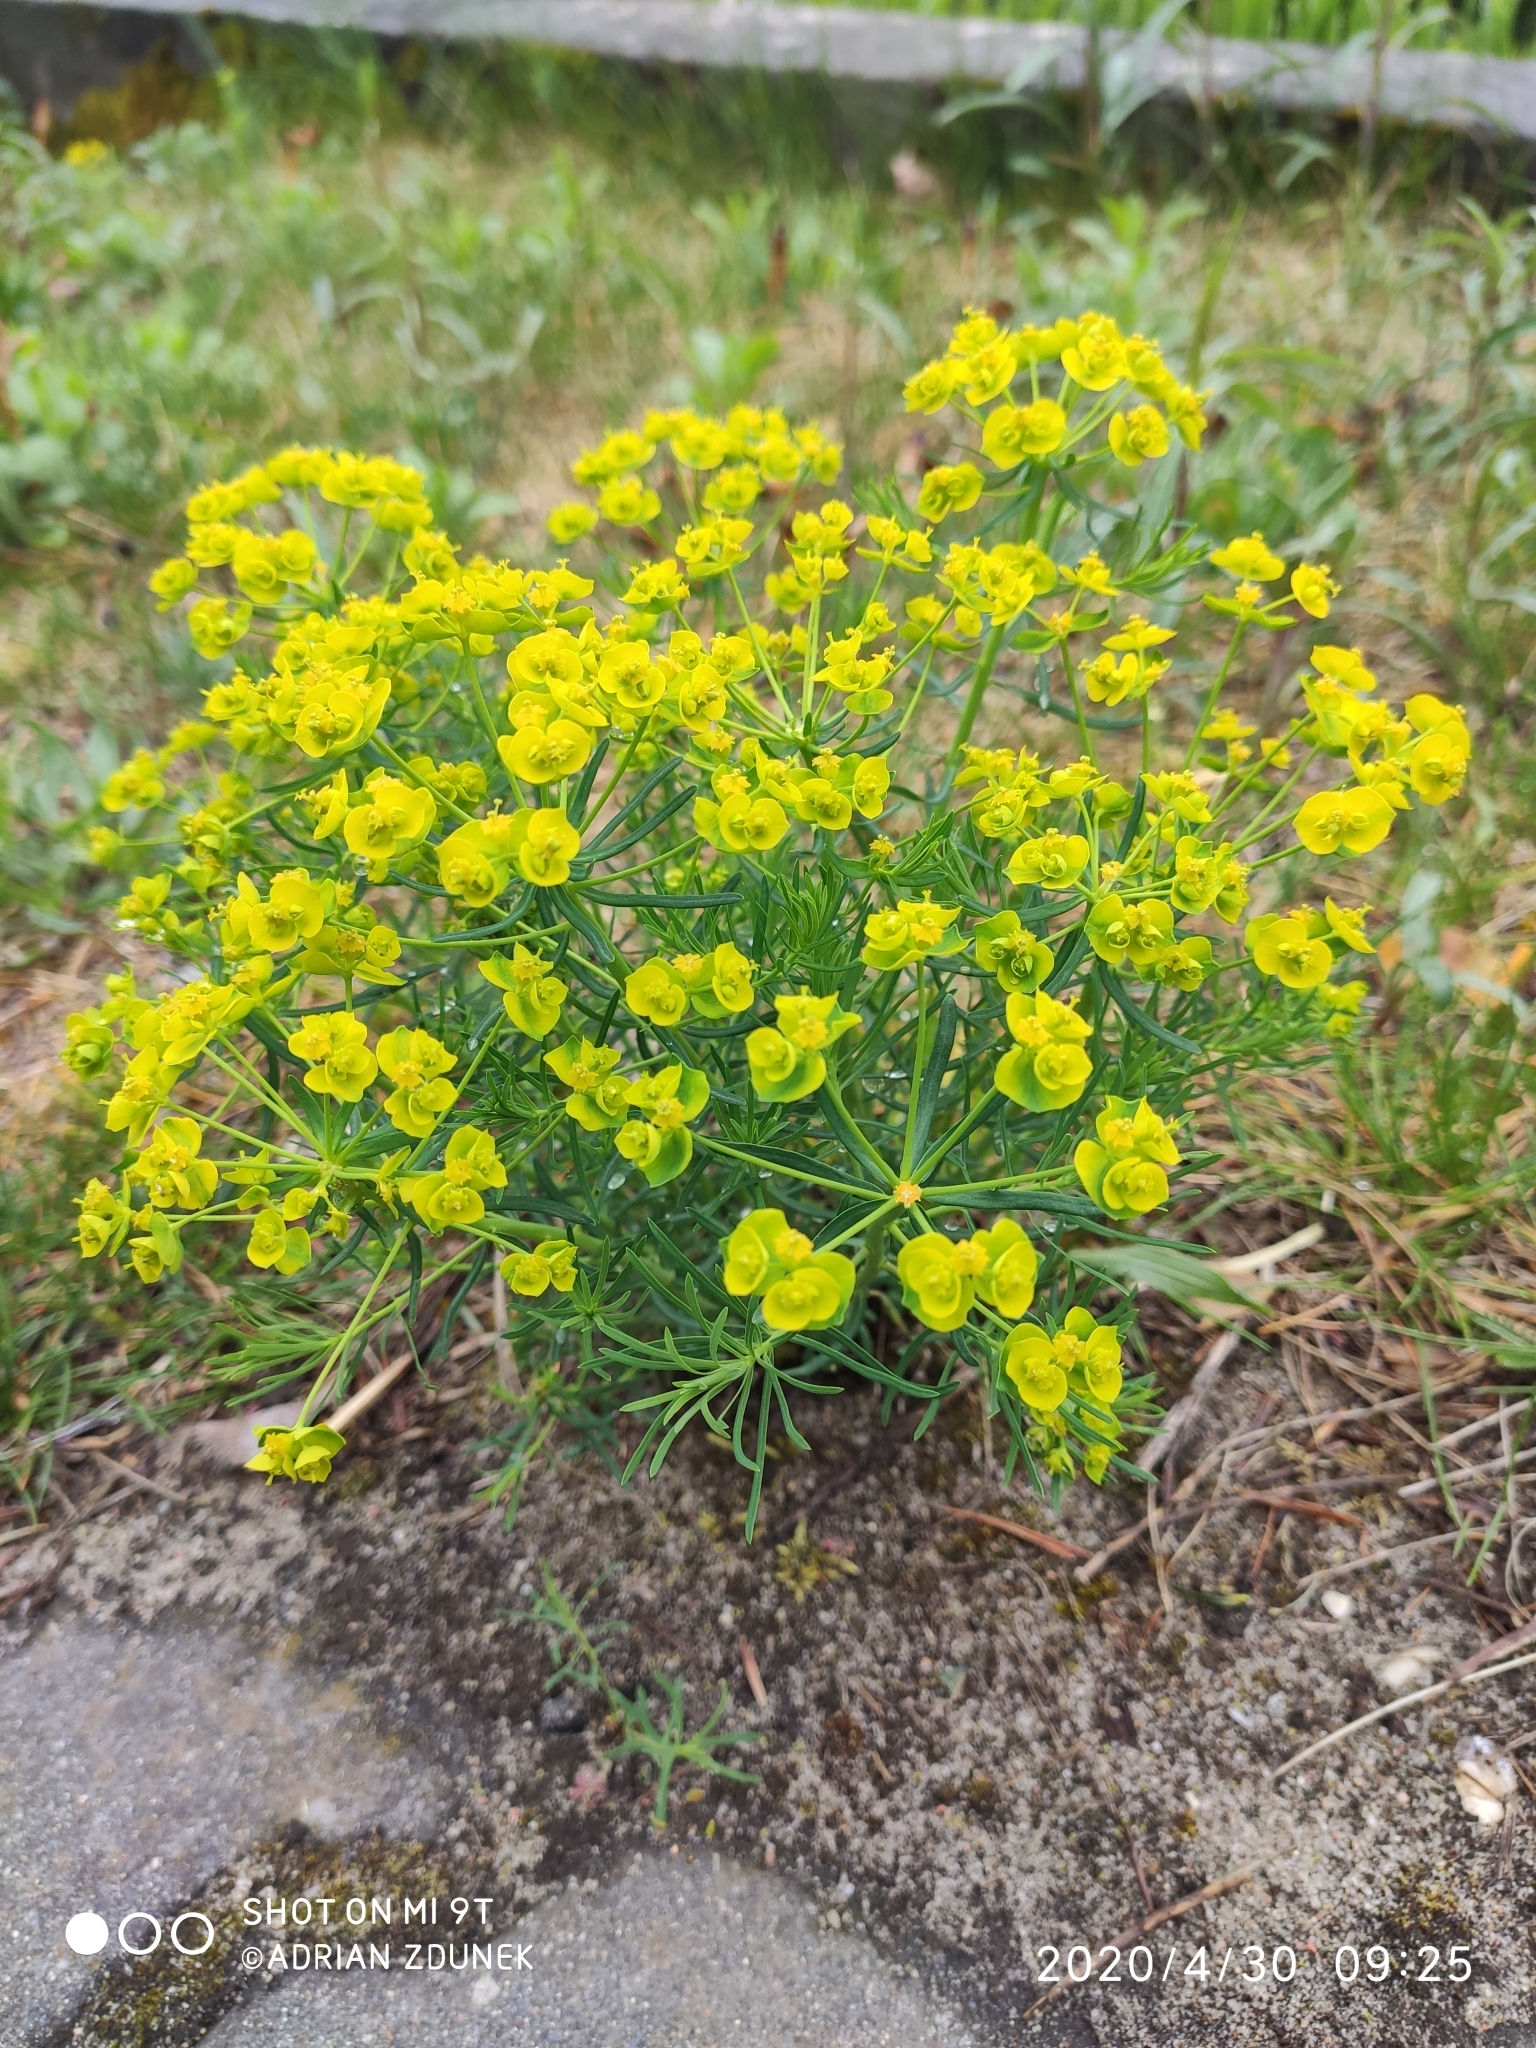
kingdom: Plantae
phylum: Tracheophyta
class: Magnoliopsida
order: Malpighiales
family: Euphorbiaceae
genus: Euphorbia
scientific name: Euphorbia cyparissias
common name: Cypress spurge
